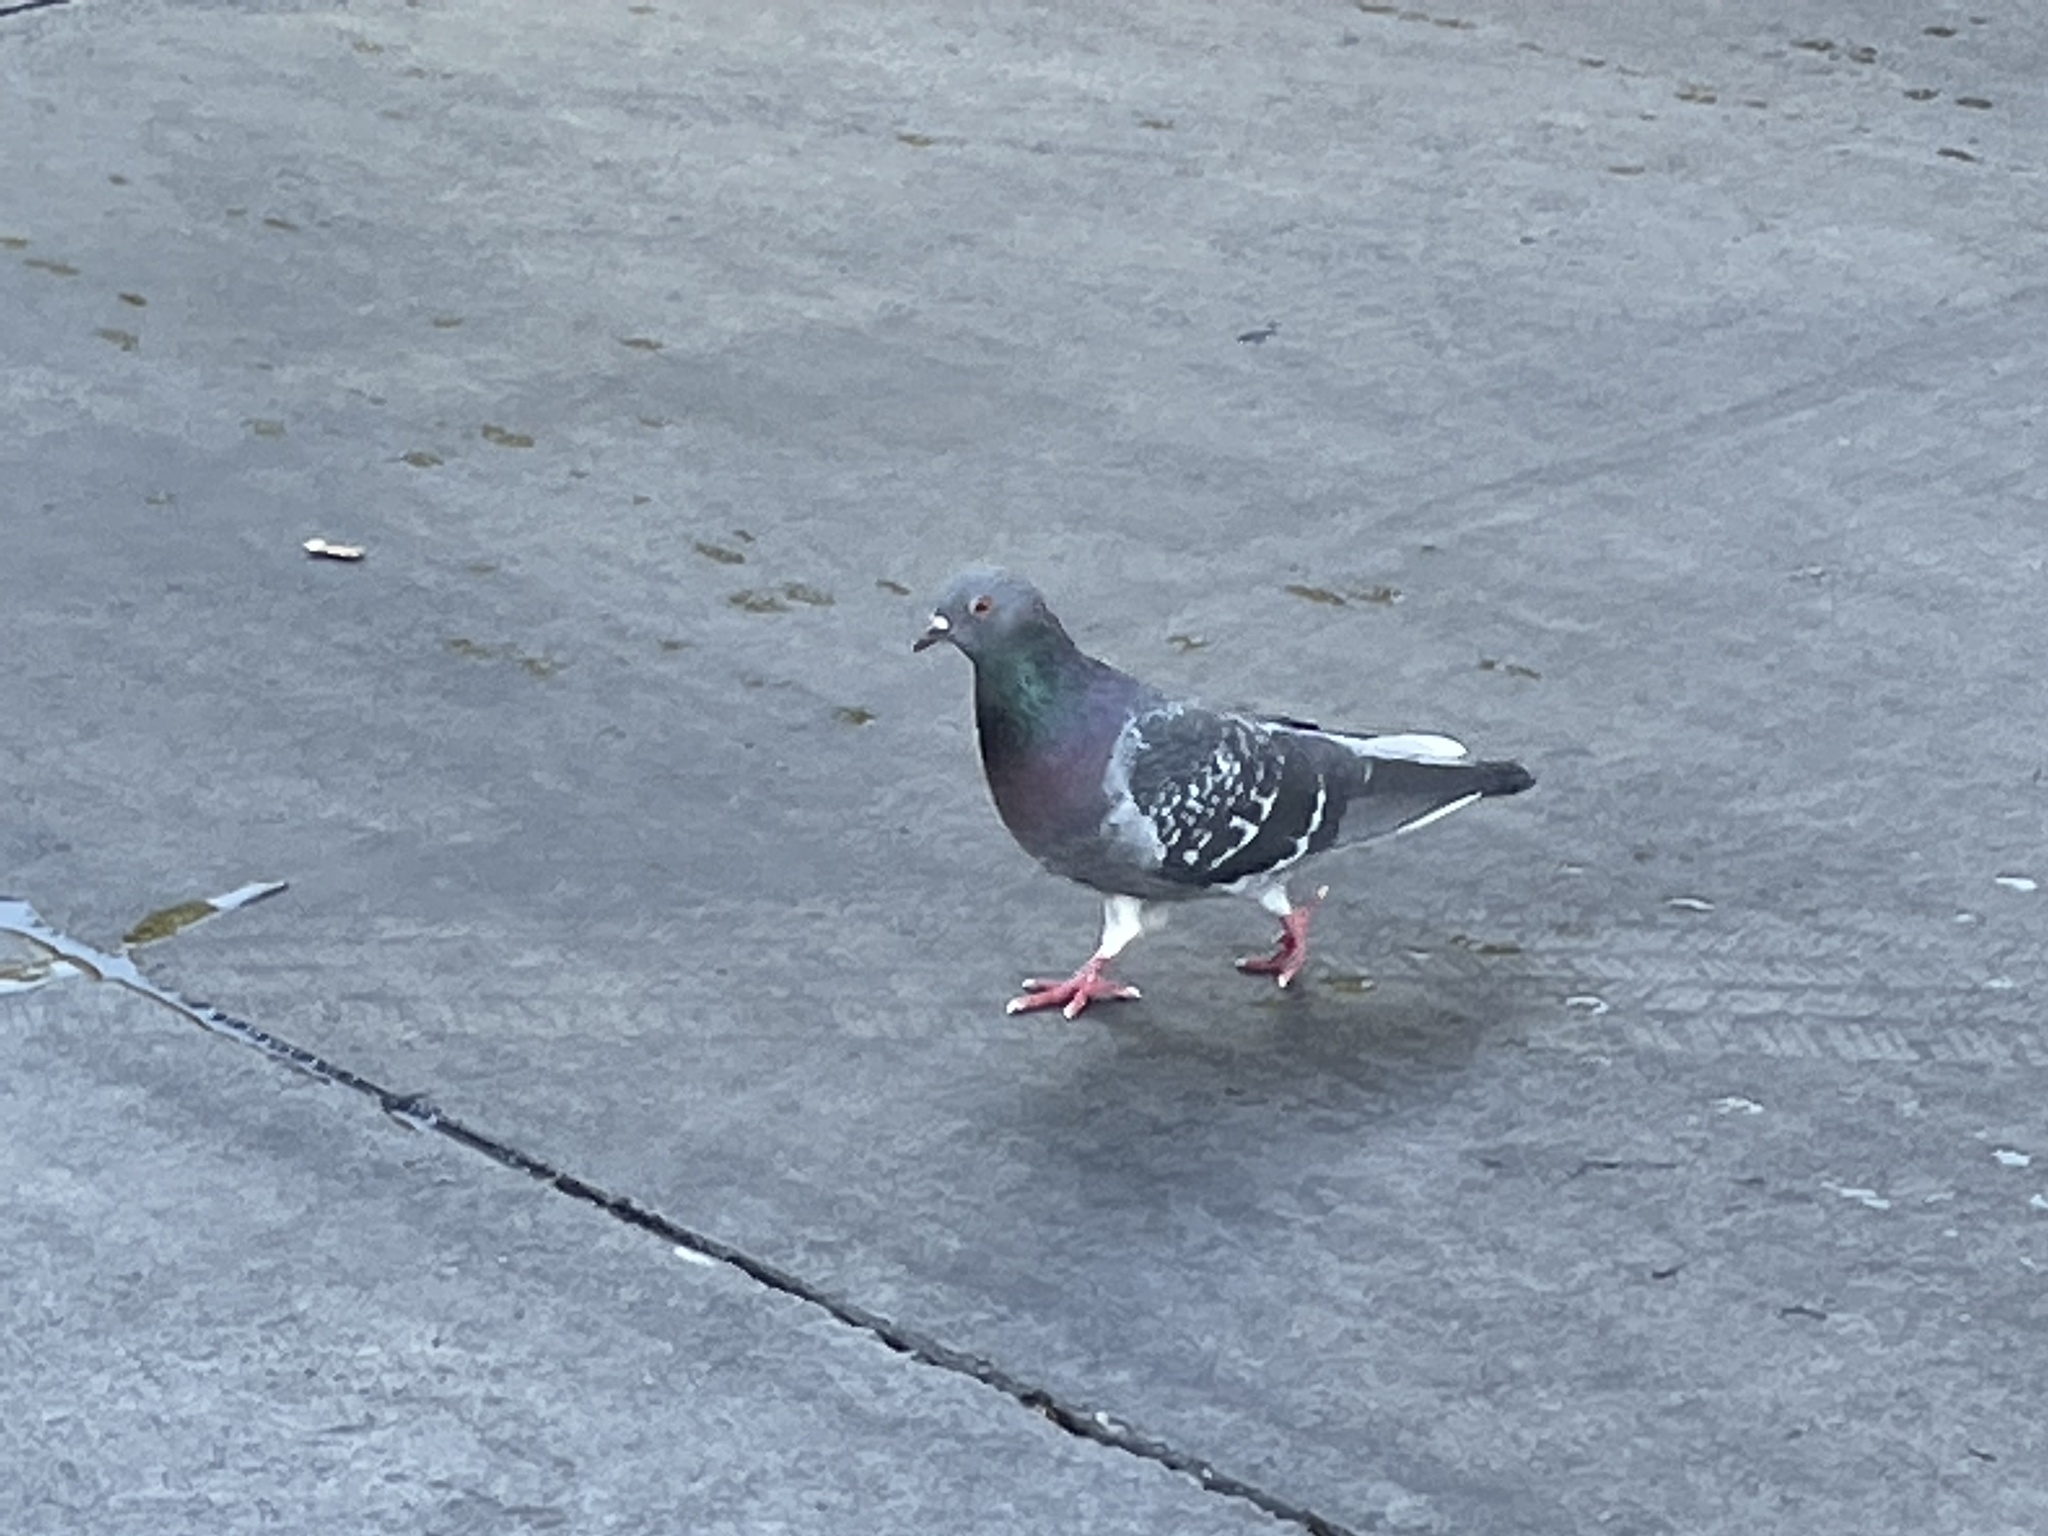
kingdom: Animalia
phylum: Chordata
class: Aves
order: Columbiformes
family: Columbidae
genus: Columba
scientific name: Columba livia
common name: Rock pigeon
